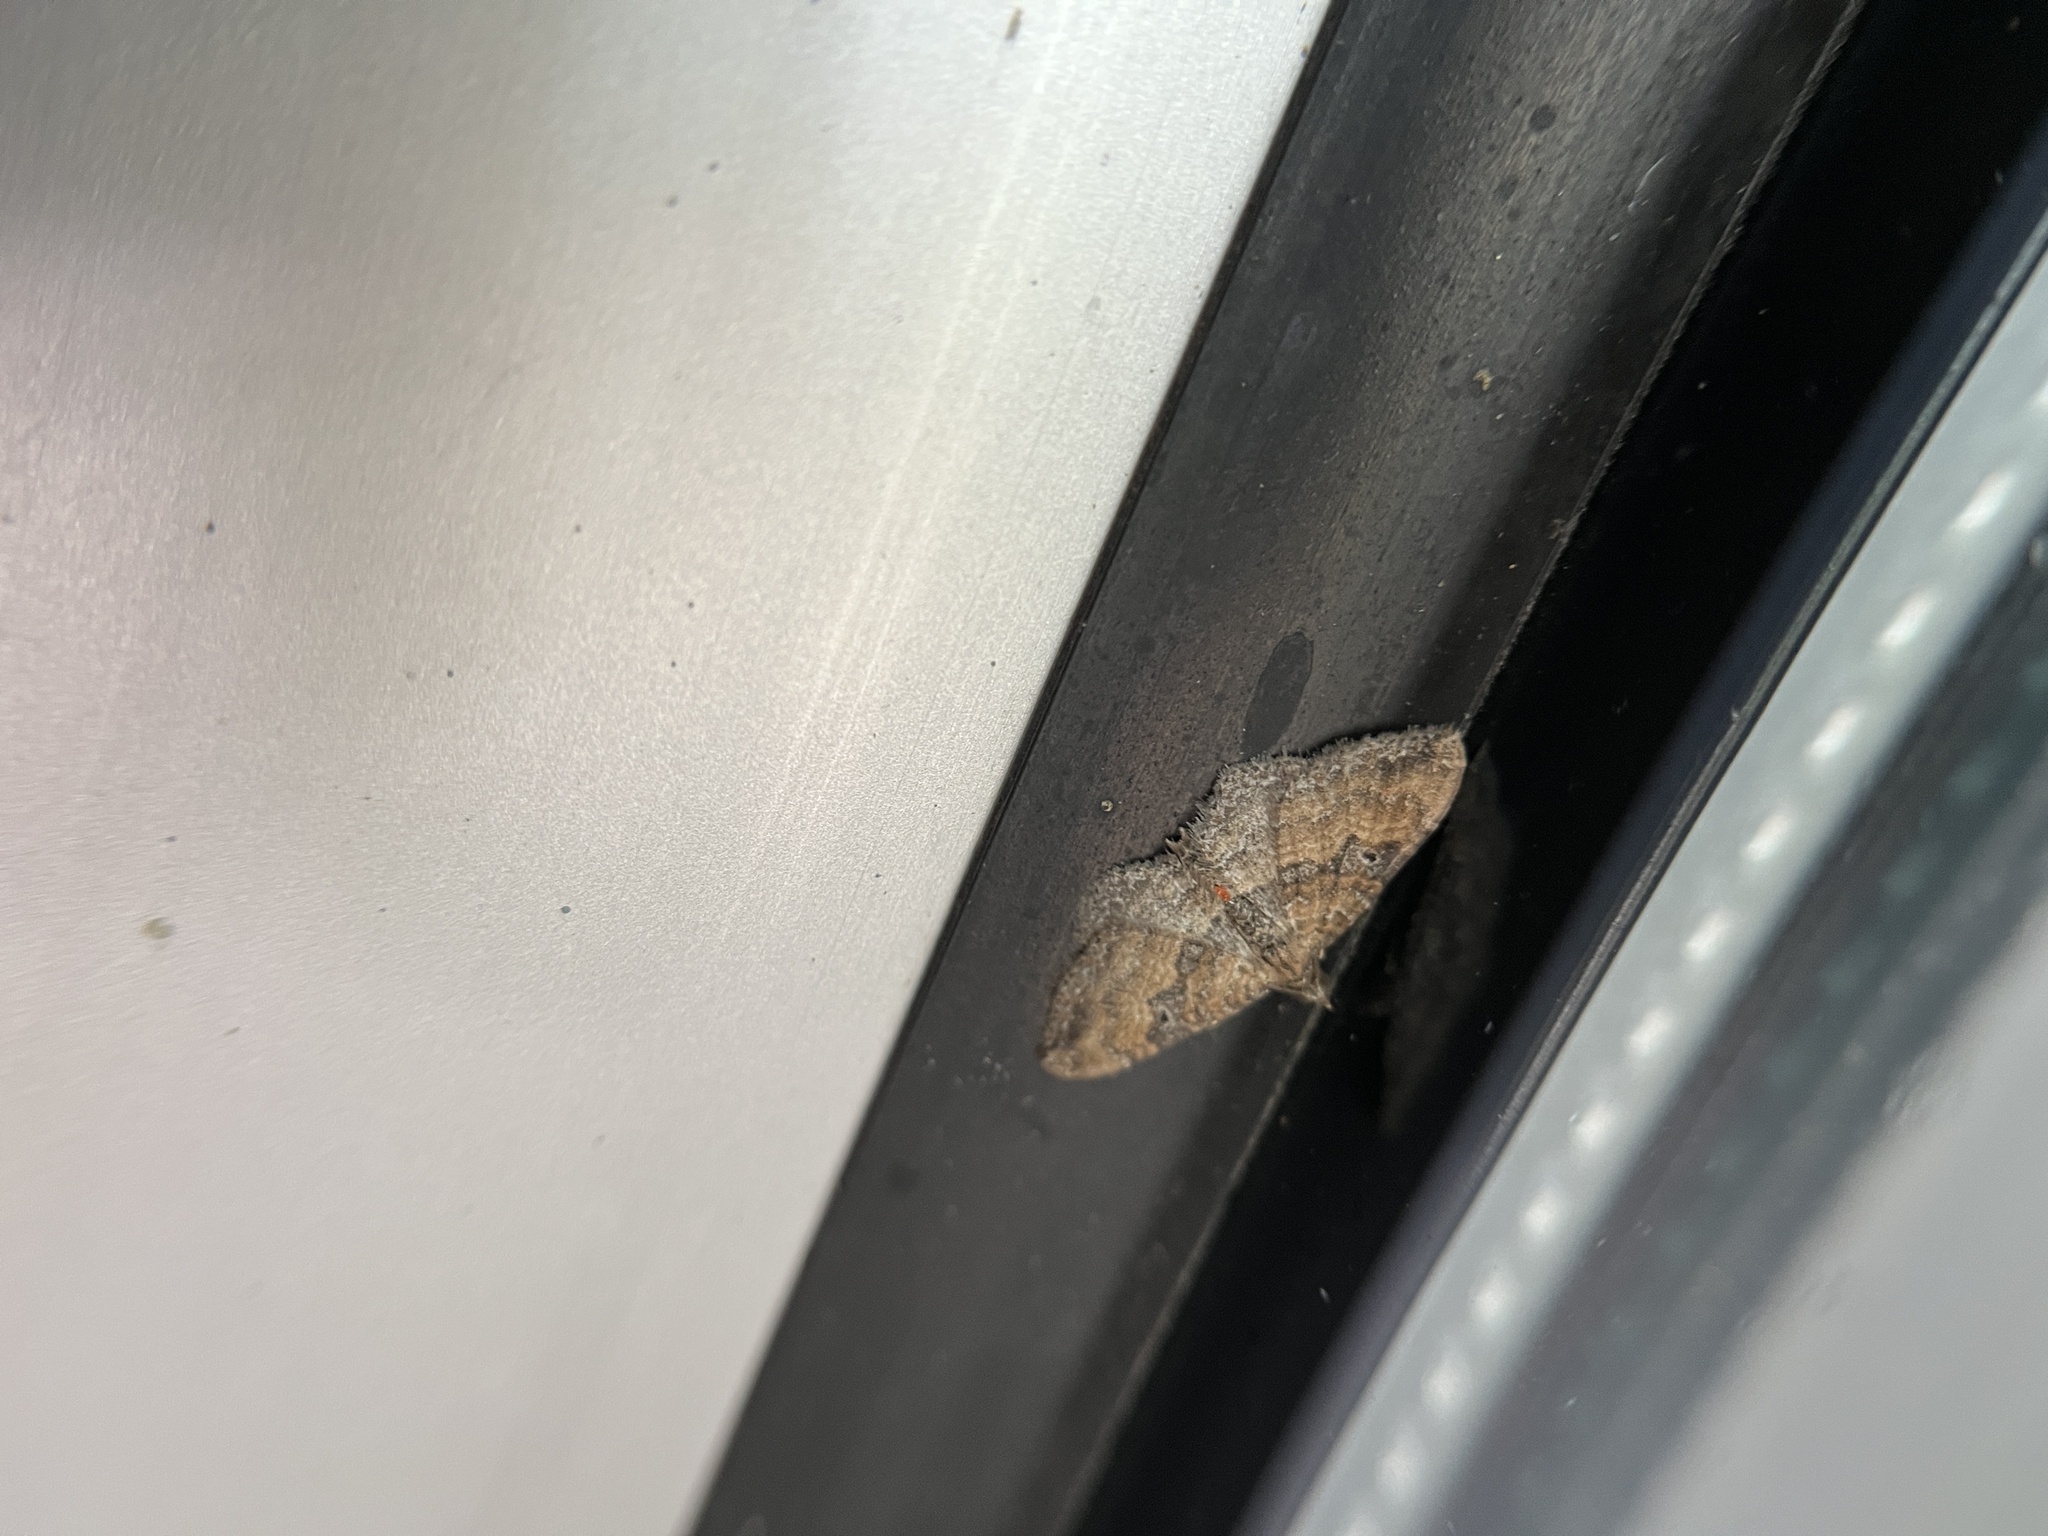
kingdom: Animalia
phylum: Arthropoda
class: Insecta
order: Lepidoptera
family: Geometridae
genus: Orthonama
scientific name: Orthonama obstipata
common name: The gem
